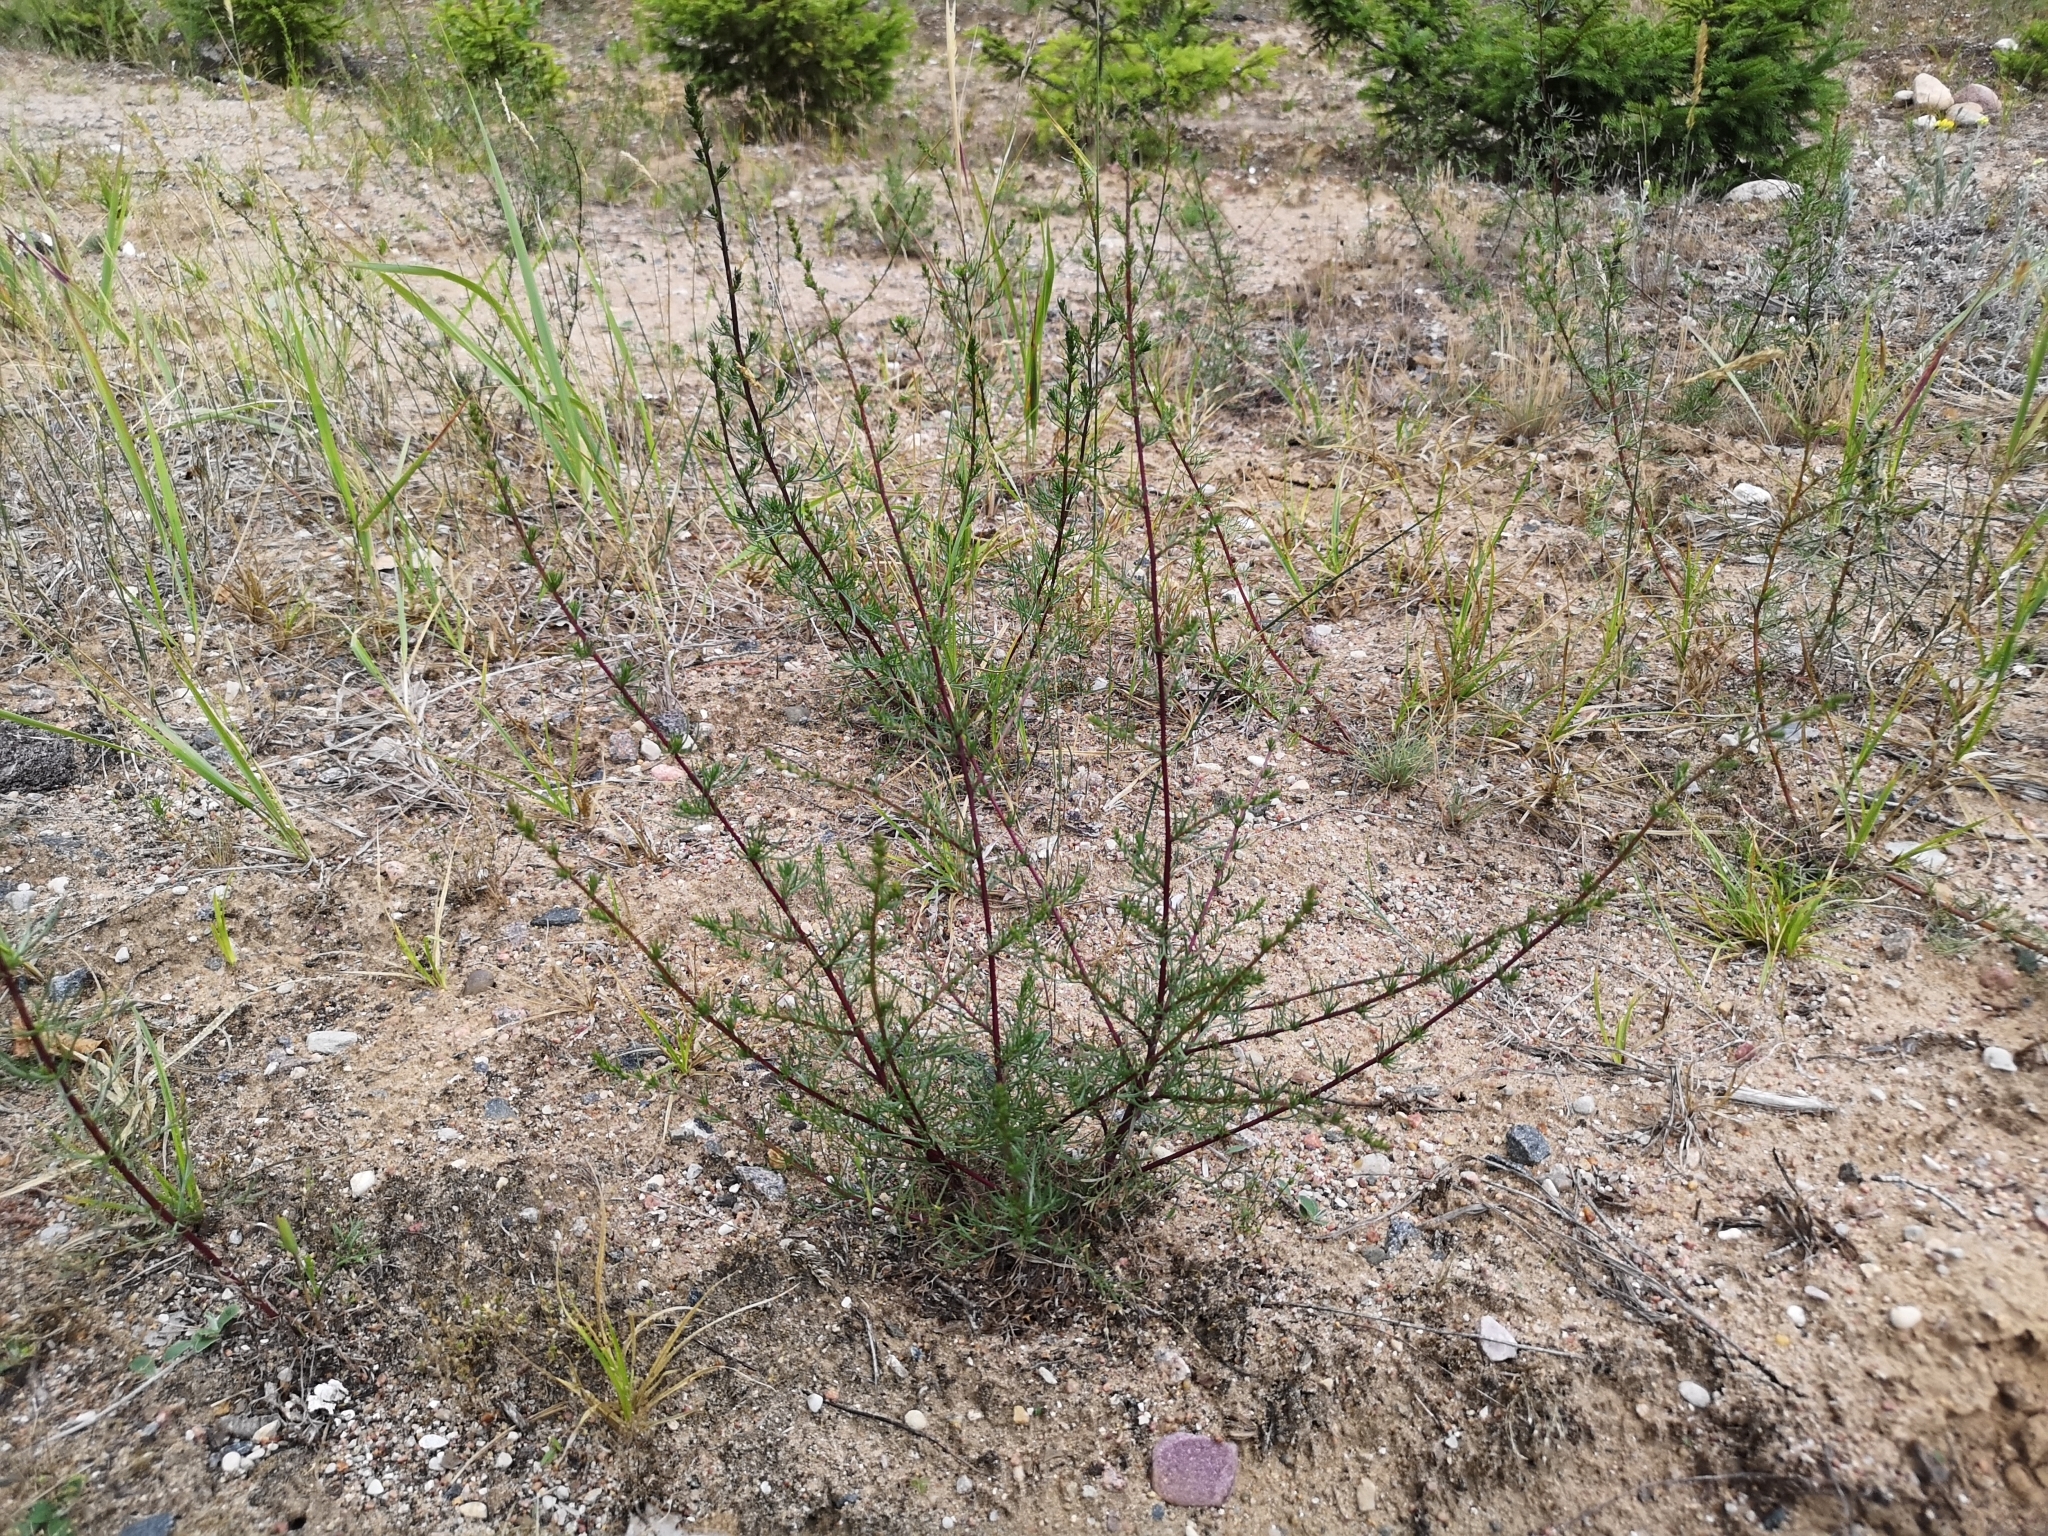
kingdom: Plantae
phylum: Tracheophyta
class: Magnoliopsida
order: Asterales
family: Asteraceae
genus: Artemisia
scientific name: Artemisia campestris
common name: Field wormwood
